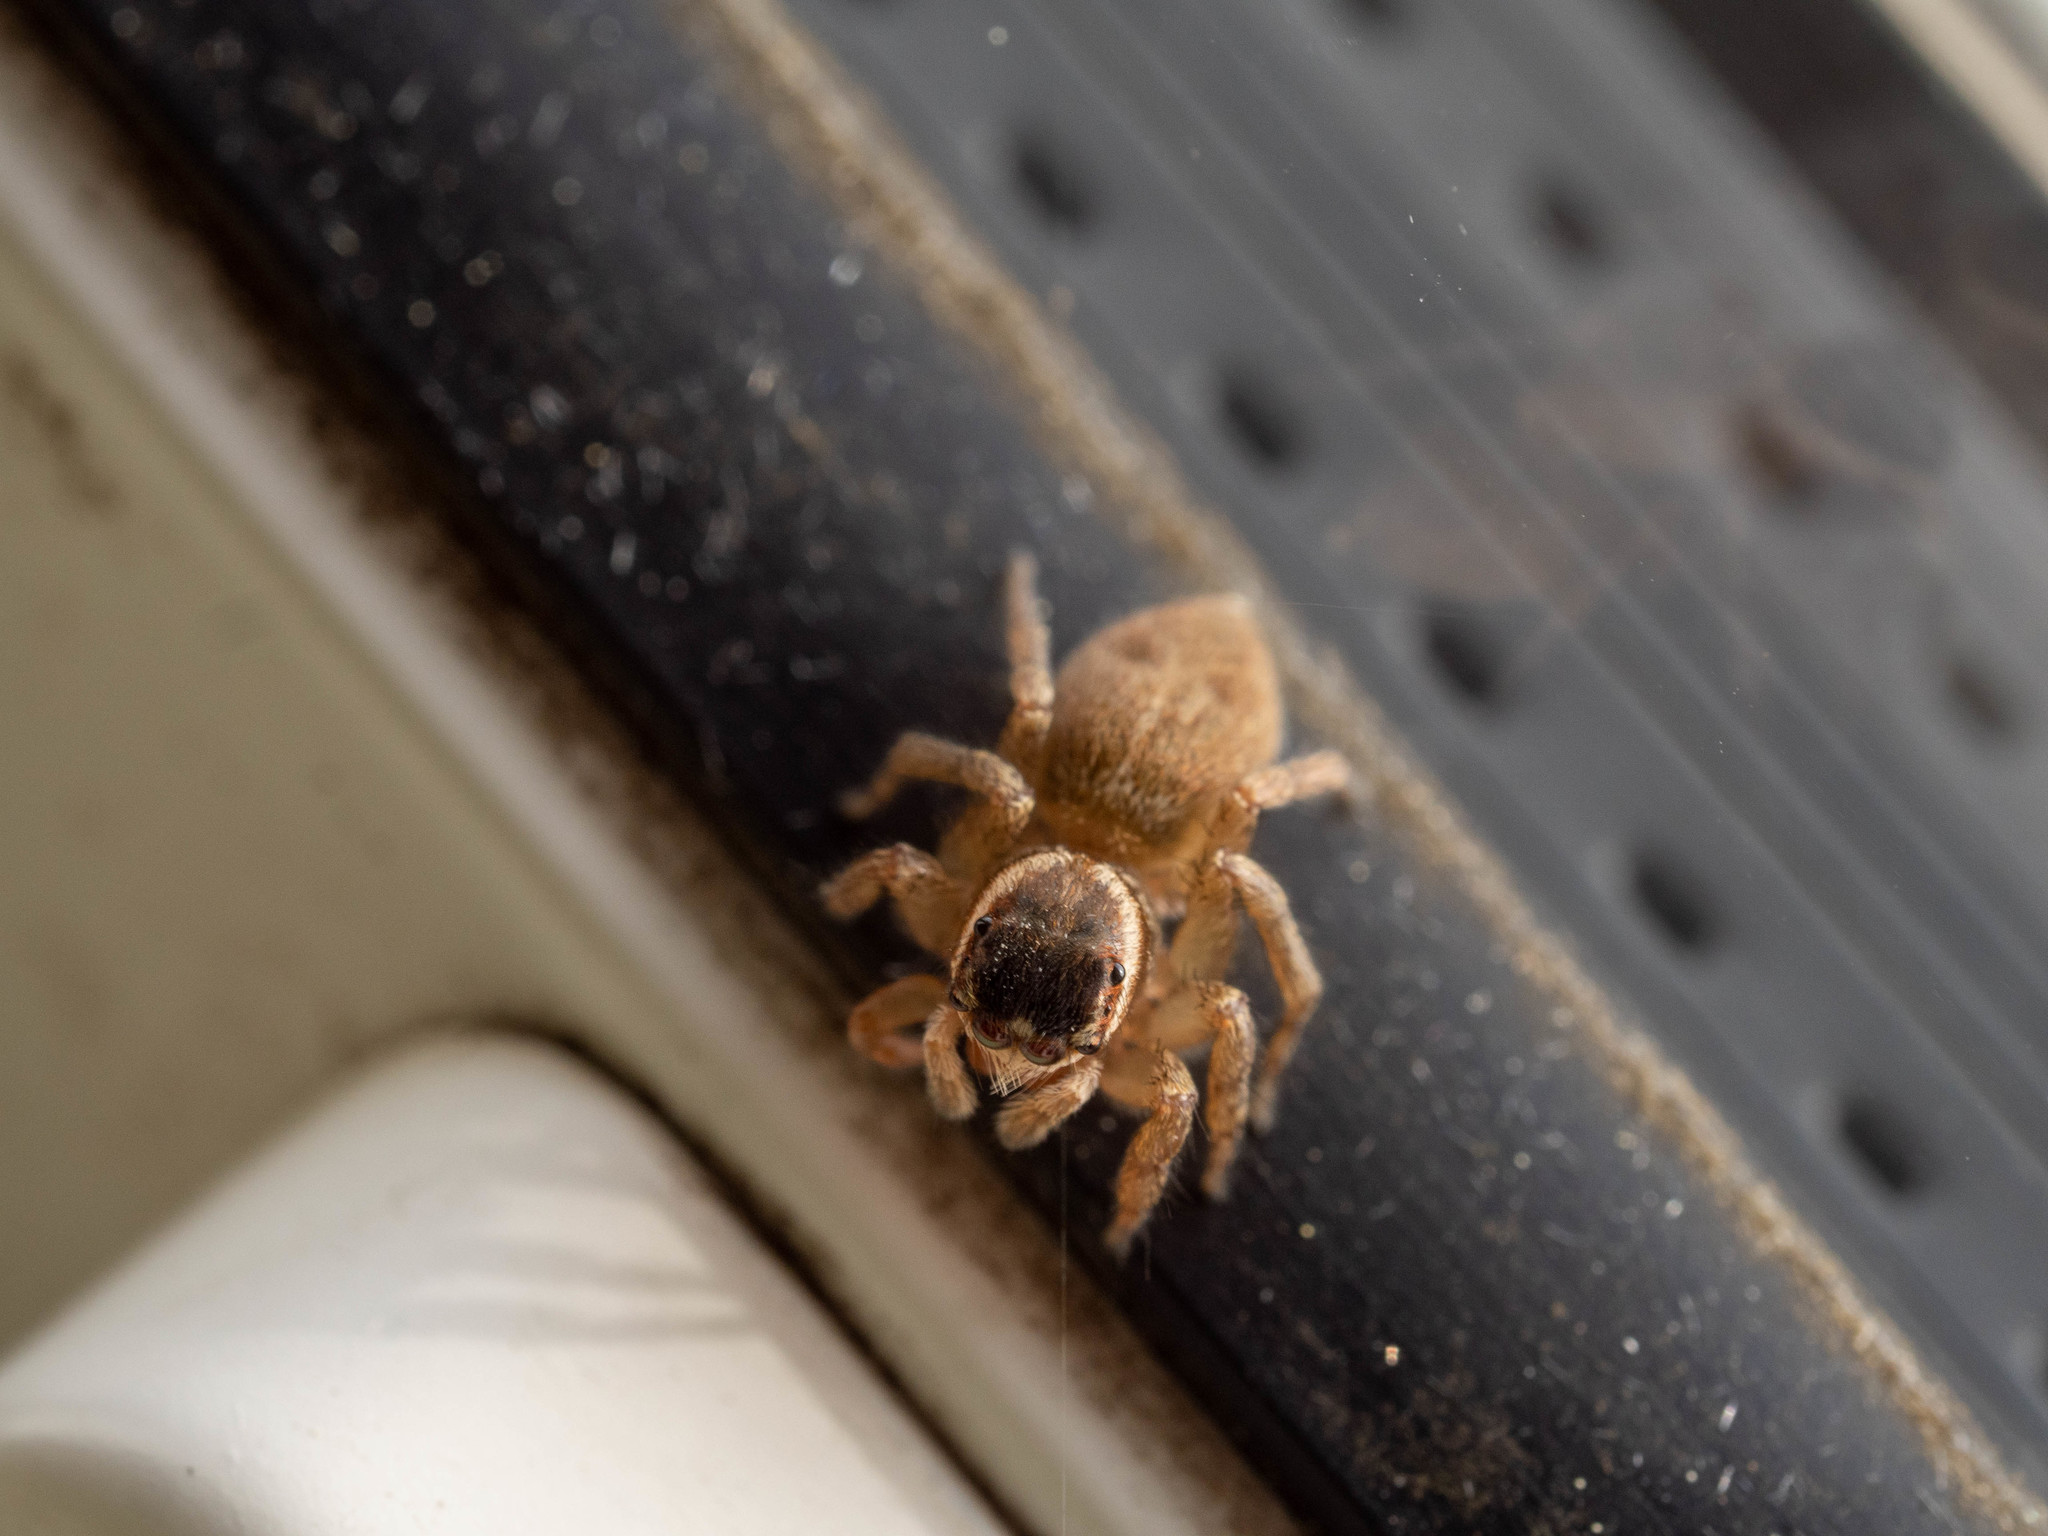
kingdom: Animalia
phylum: Arthropoda
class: Arachnida
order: Araneae
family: Salticidae
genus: Maratus
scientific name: Maratus griseus
